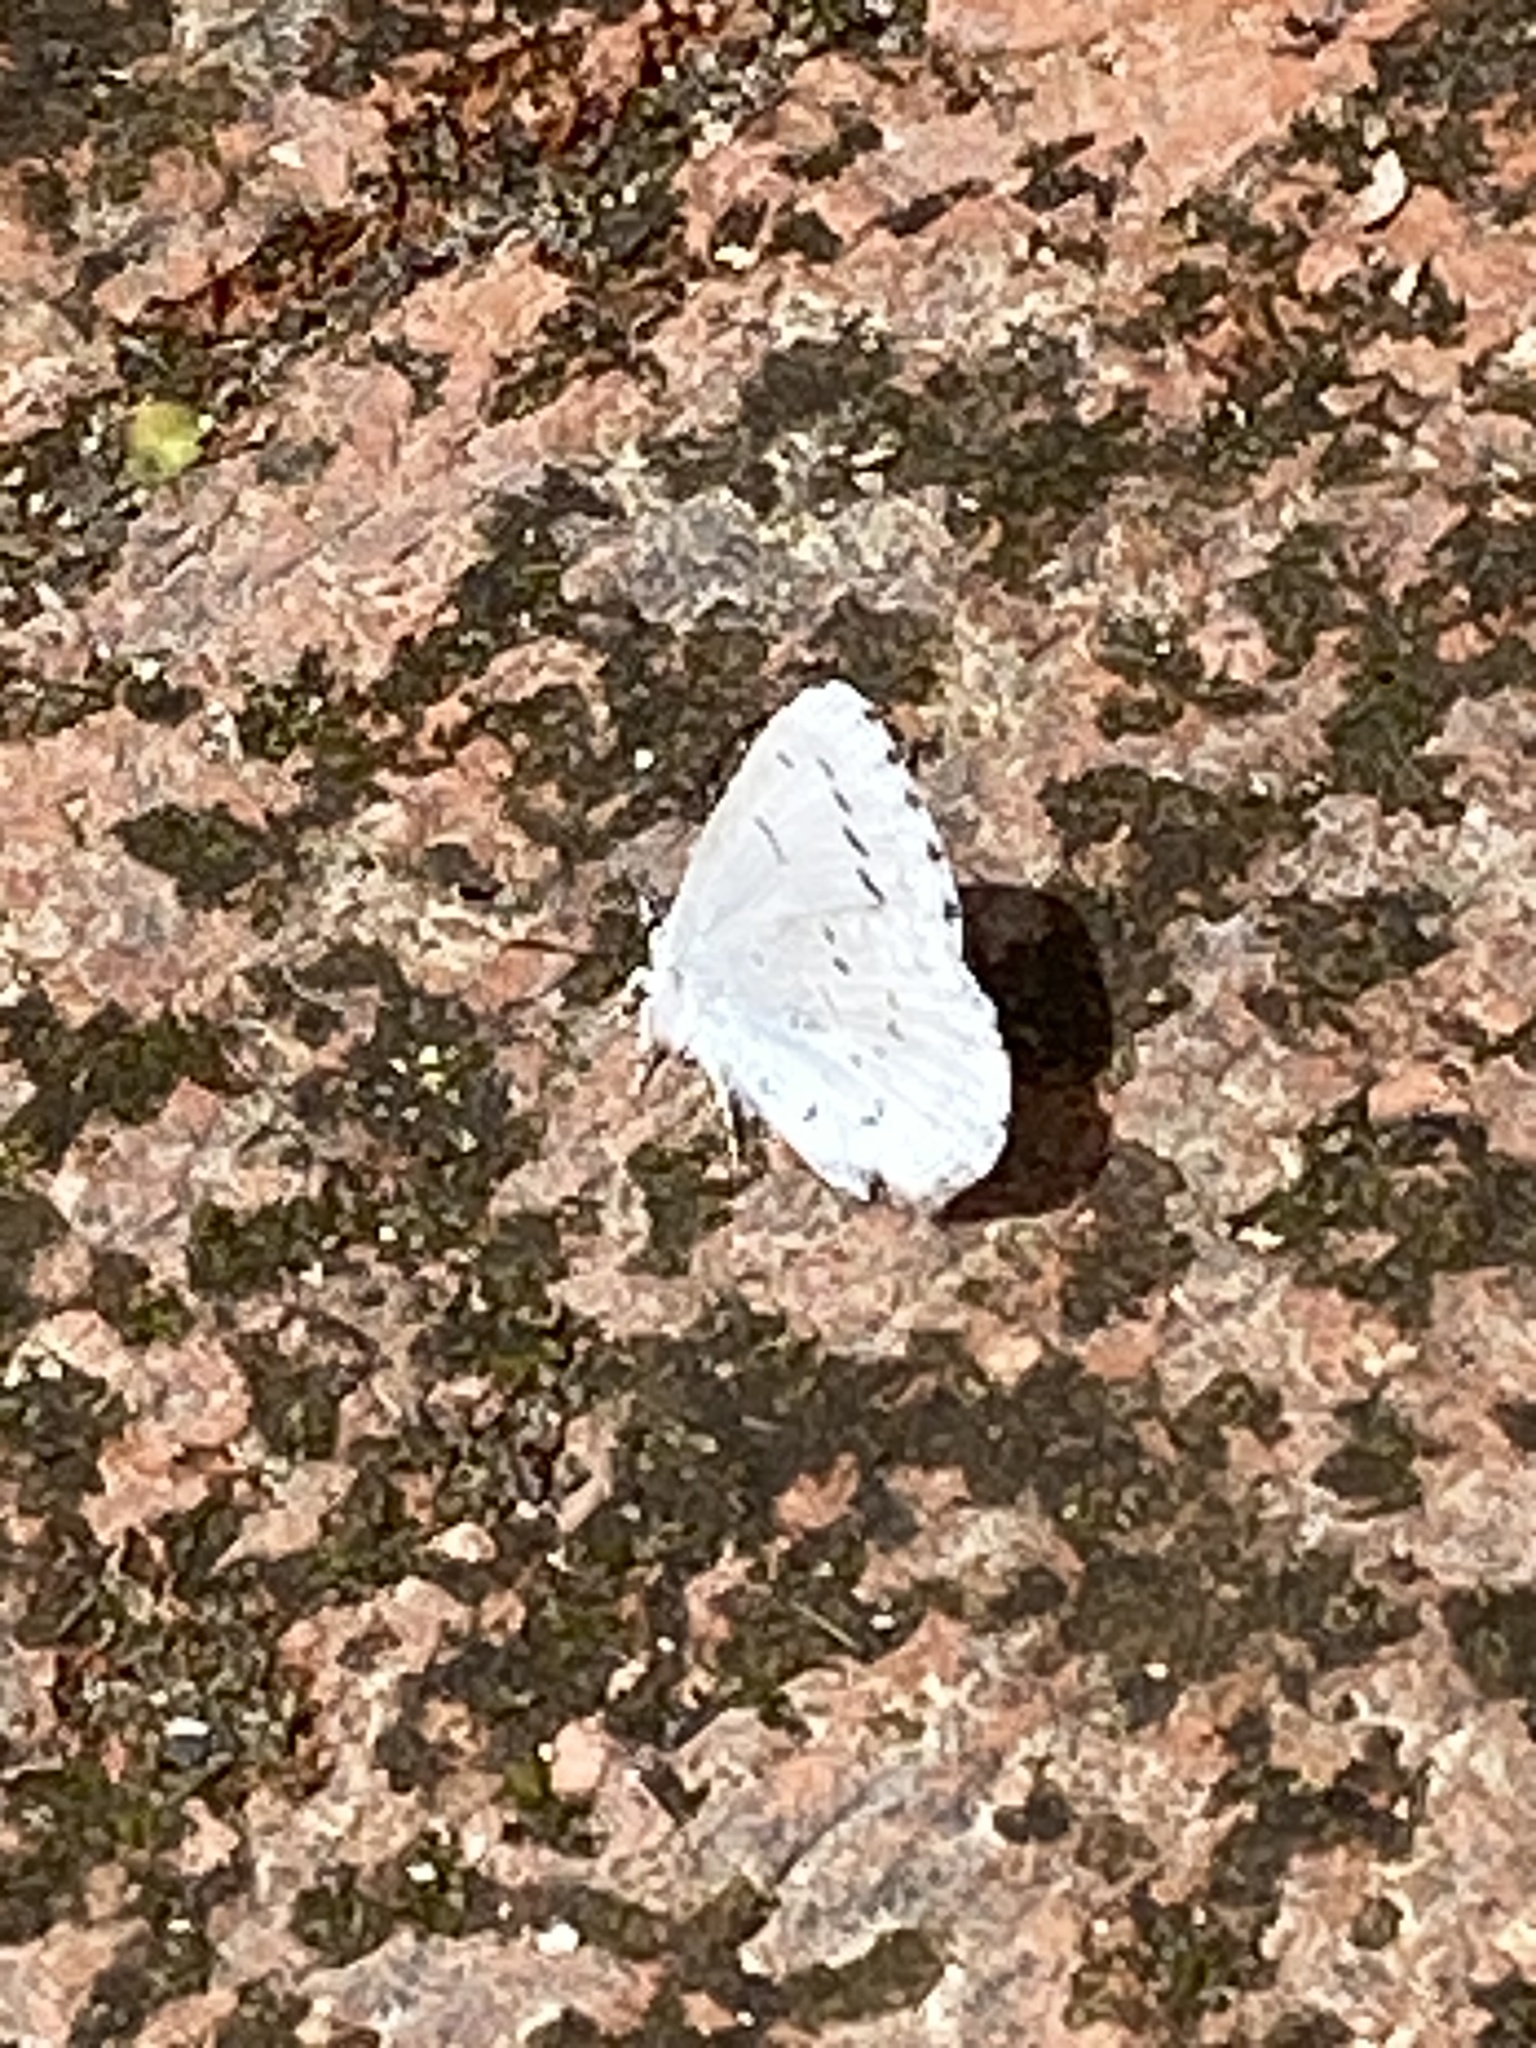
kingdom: Animalia
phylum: Arthropoda
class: Insecta
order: Lepidoptera
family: Lycaenidae
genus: Celastrina
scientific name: Celastrina ladon
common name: Spring azure
